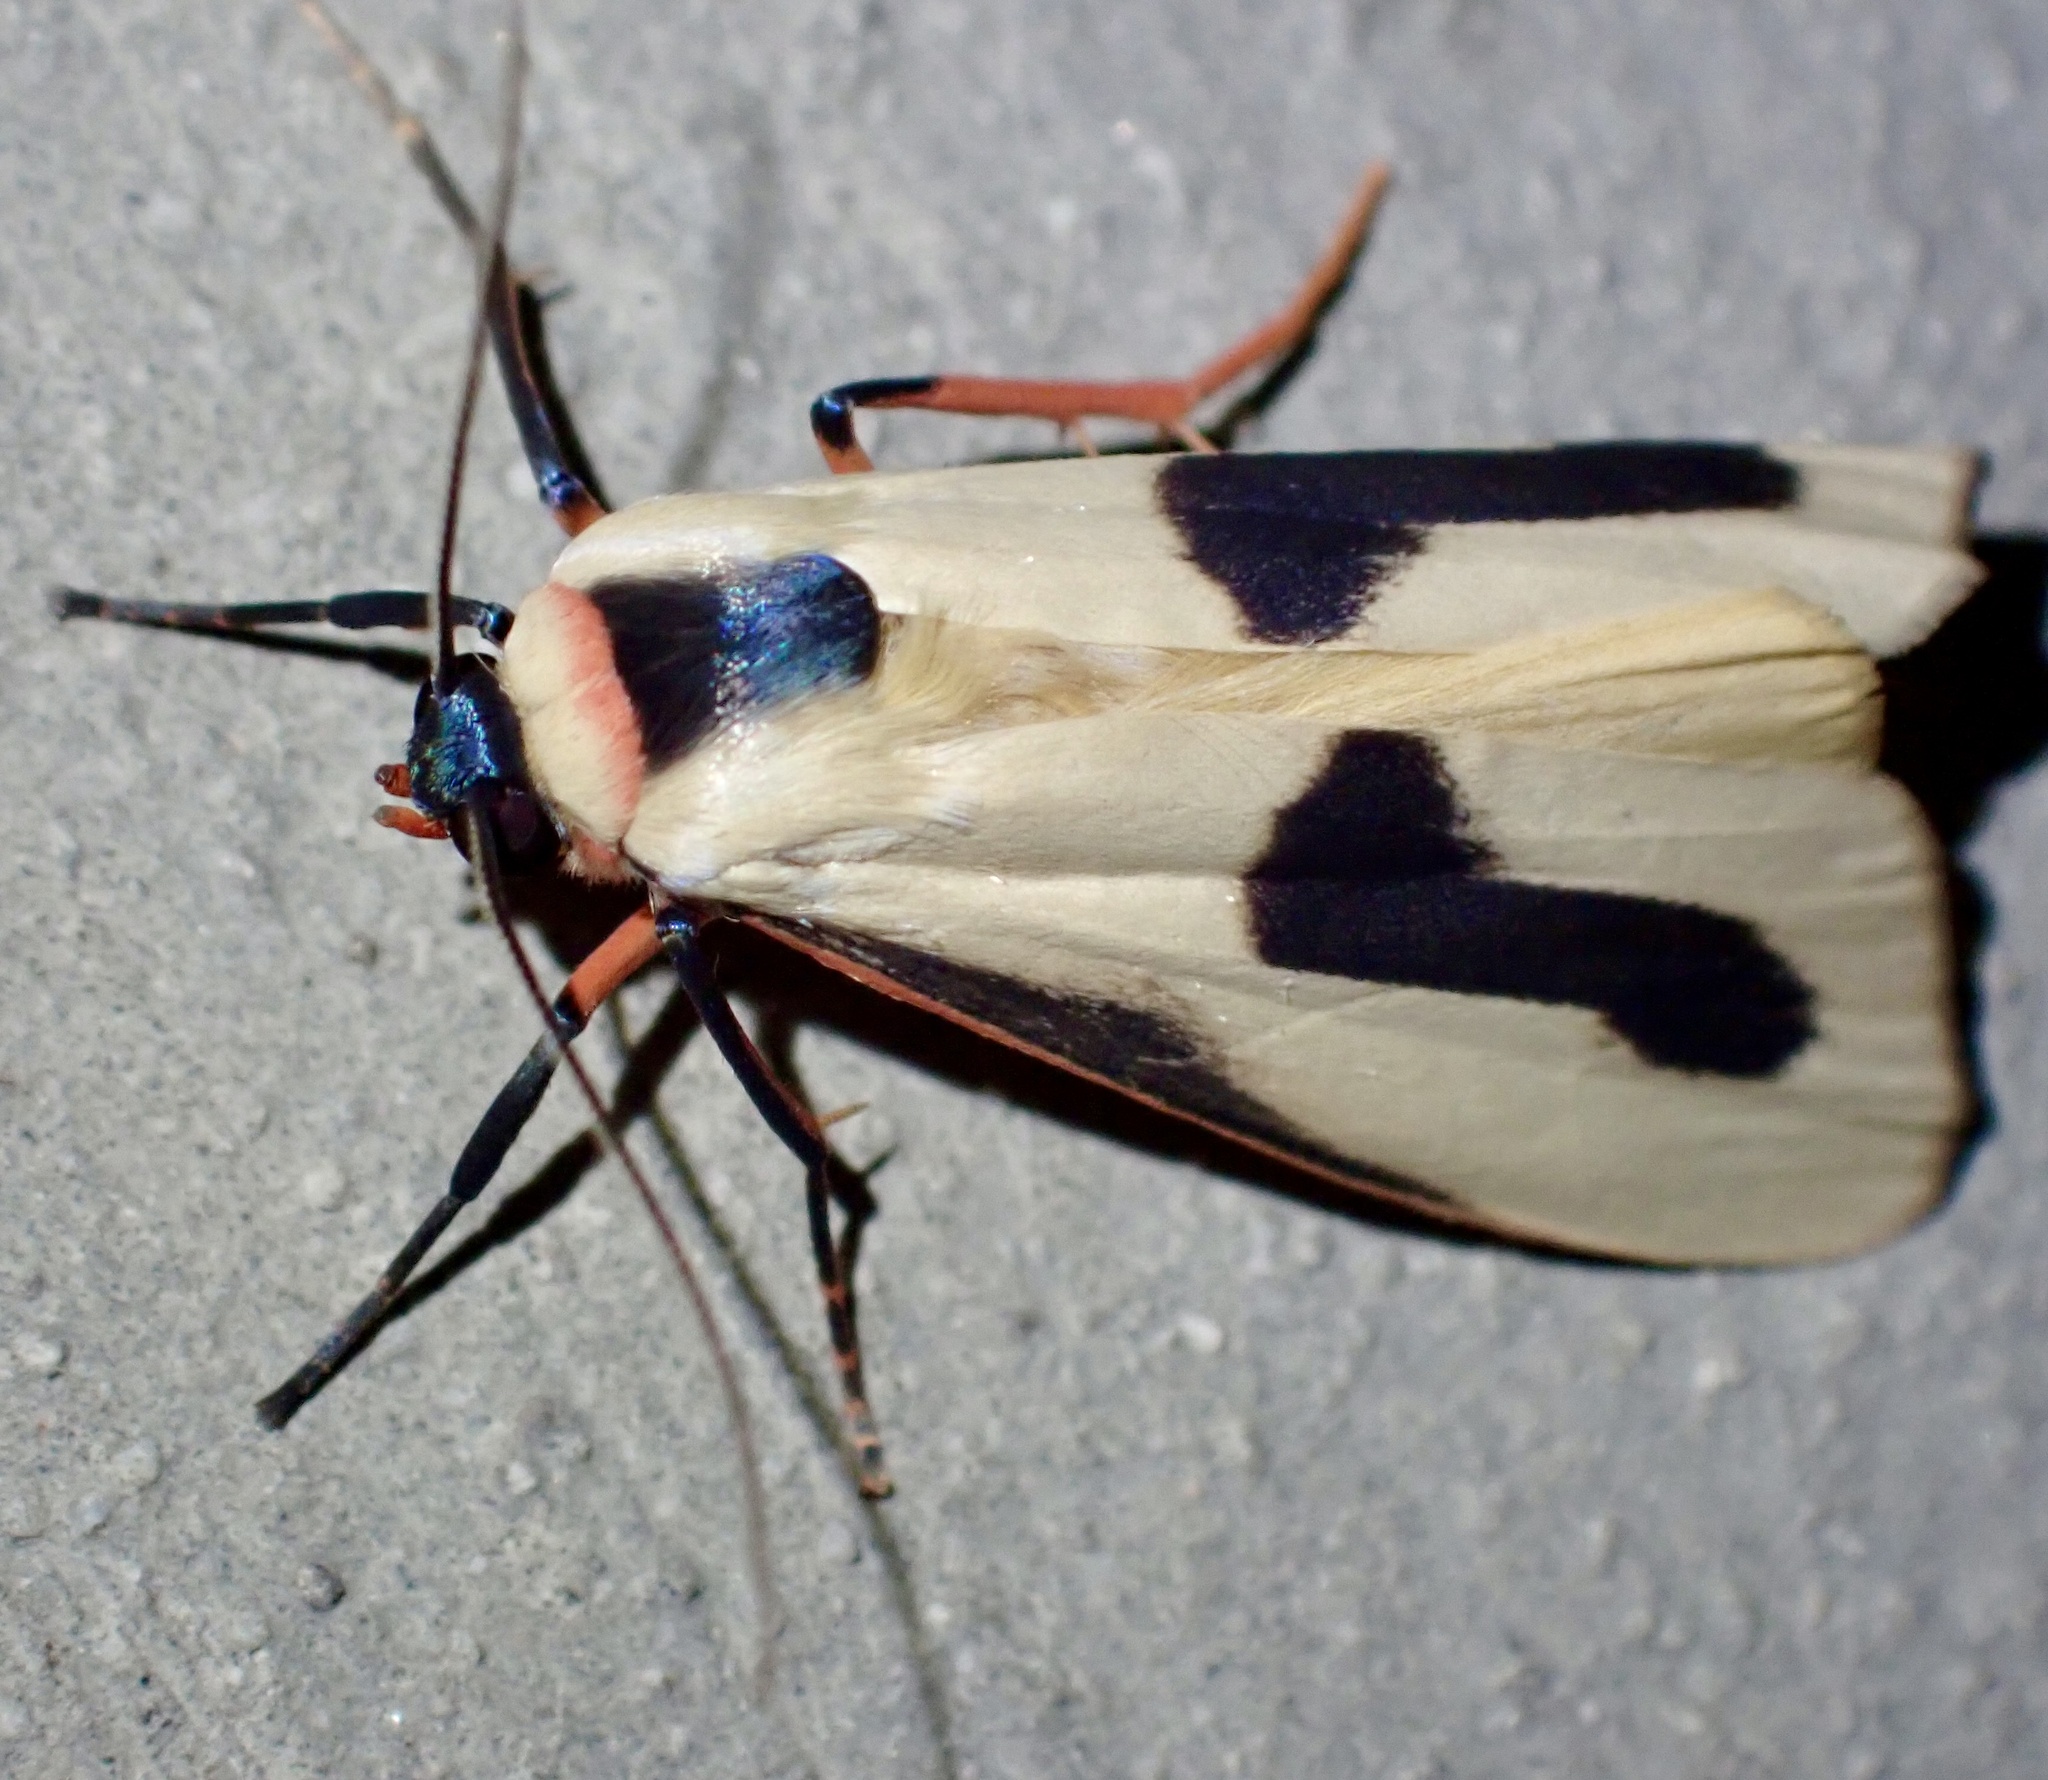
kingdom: Animalia
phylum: Arthropoda
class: Insecta
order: Lepidoptera
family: Erebidae
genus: Oeonistis
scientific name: Oeonistis bicolora
